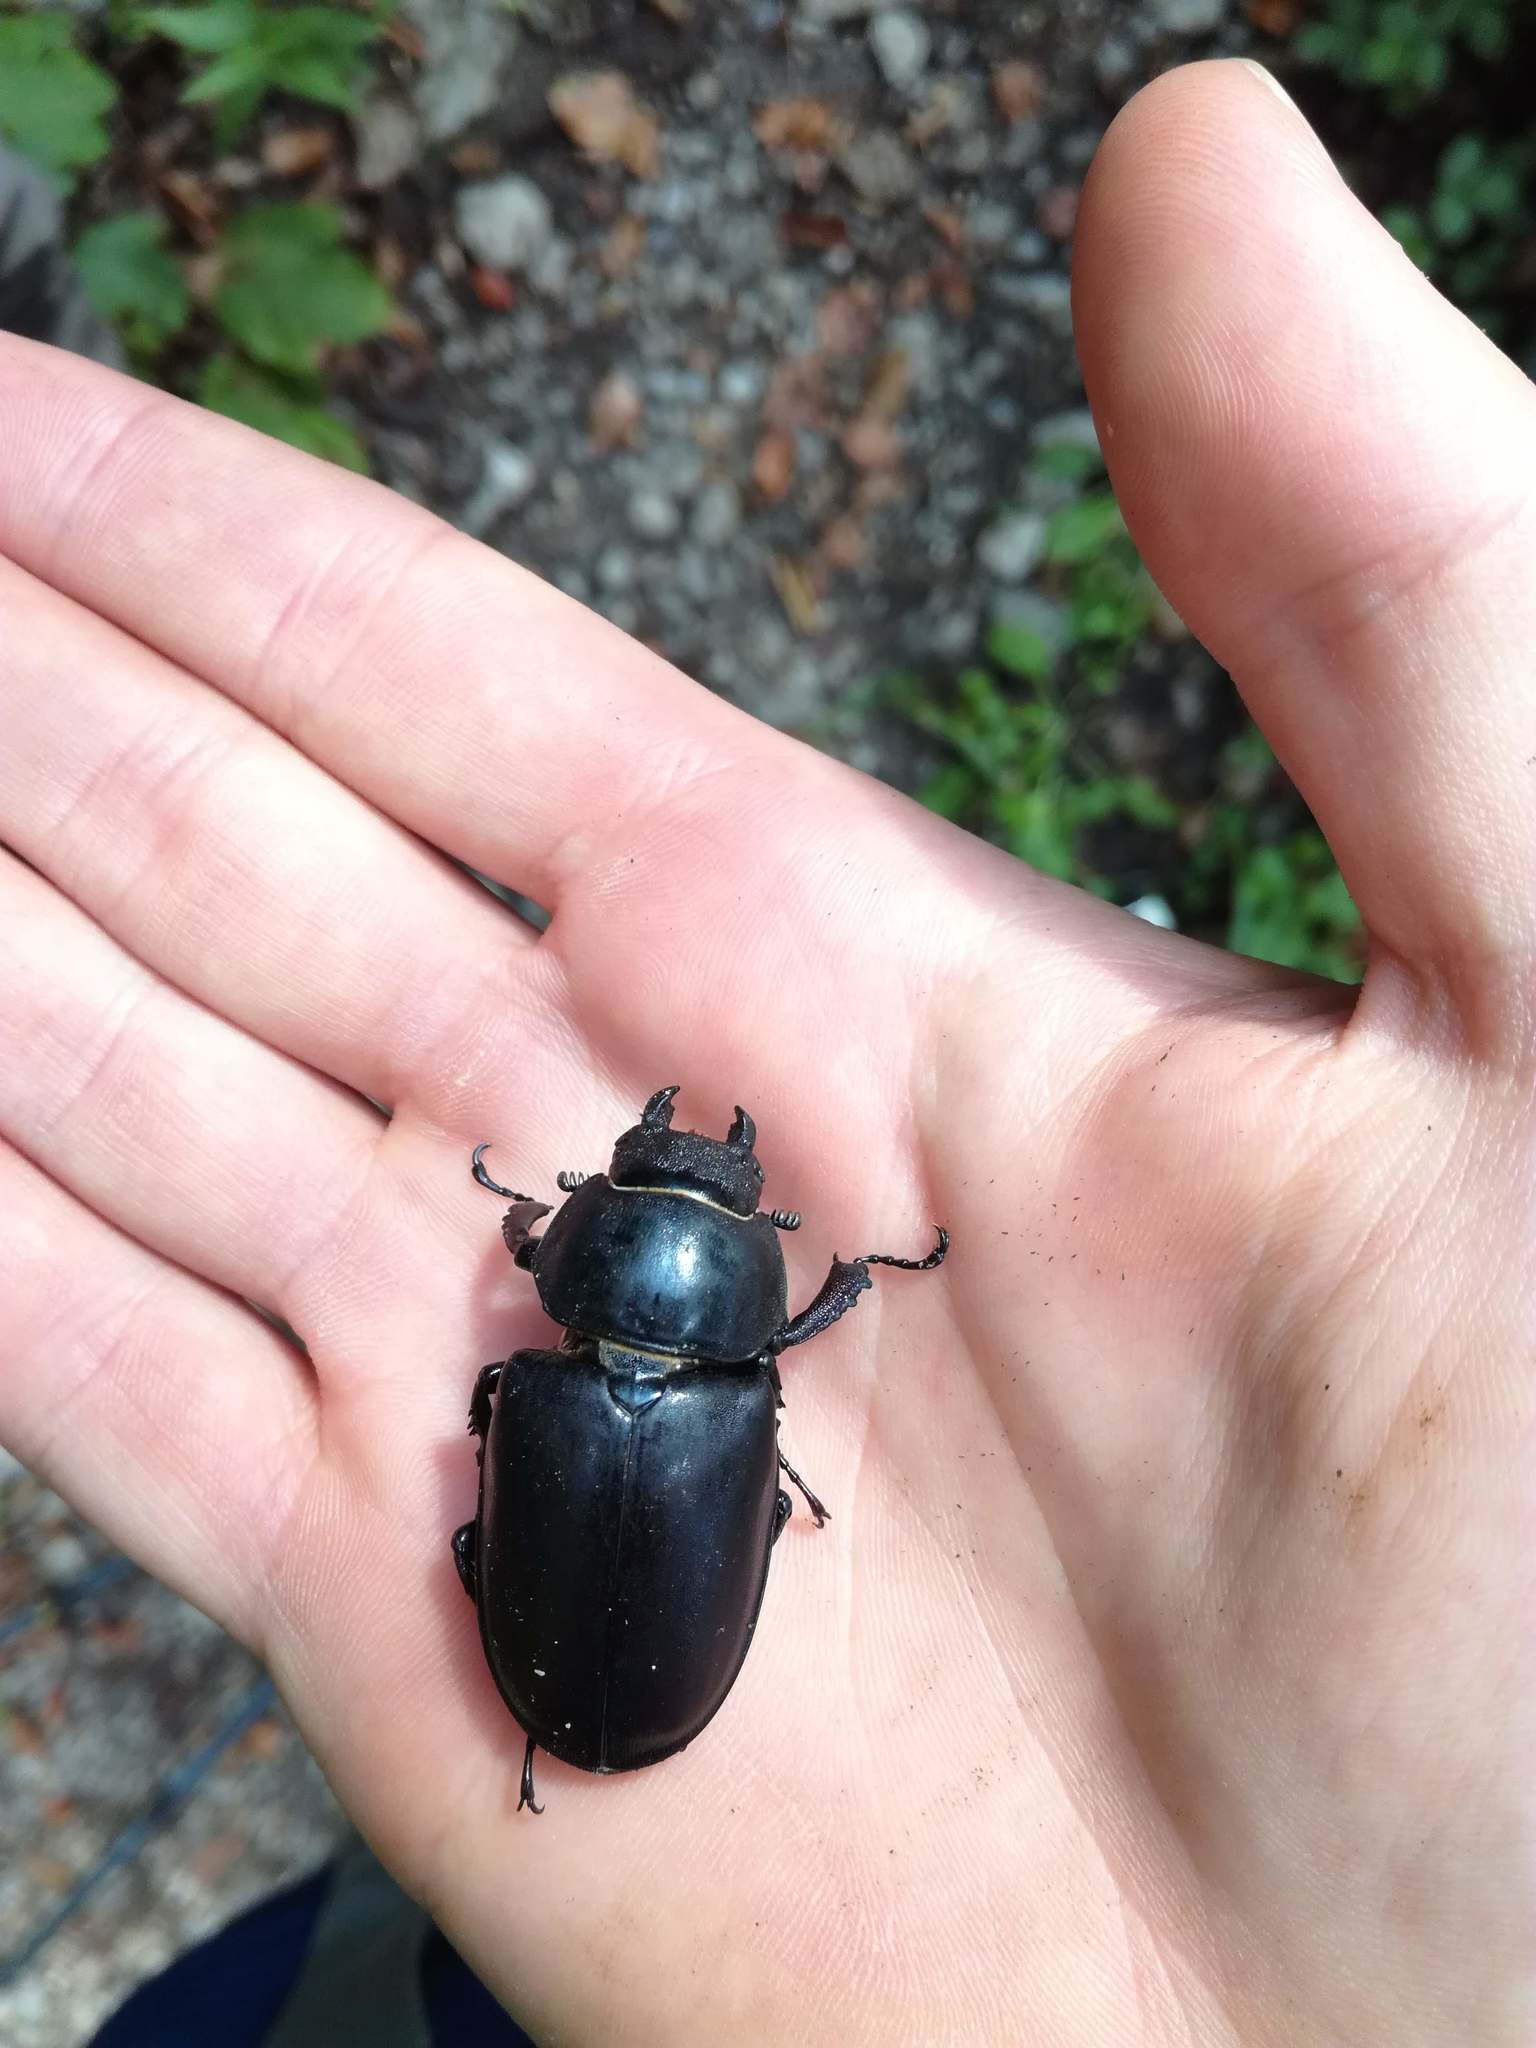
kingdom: Animalia
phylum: Arthropoda
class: Insecta
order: Coleoptera
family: Lucanidae
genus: Lucanus
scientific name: Lucanus cervus
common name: Stag beetle
